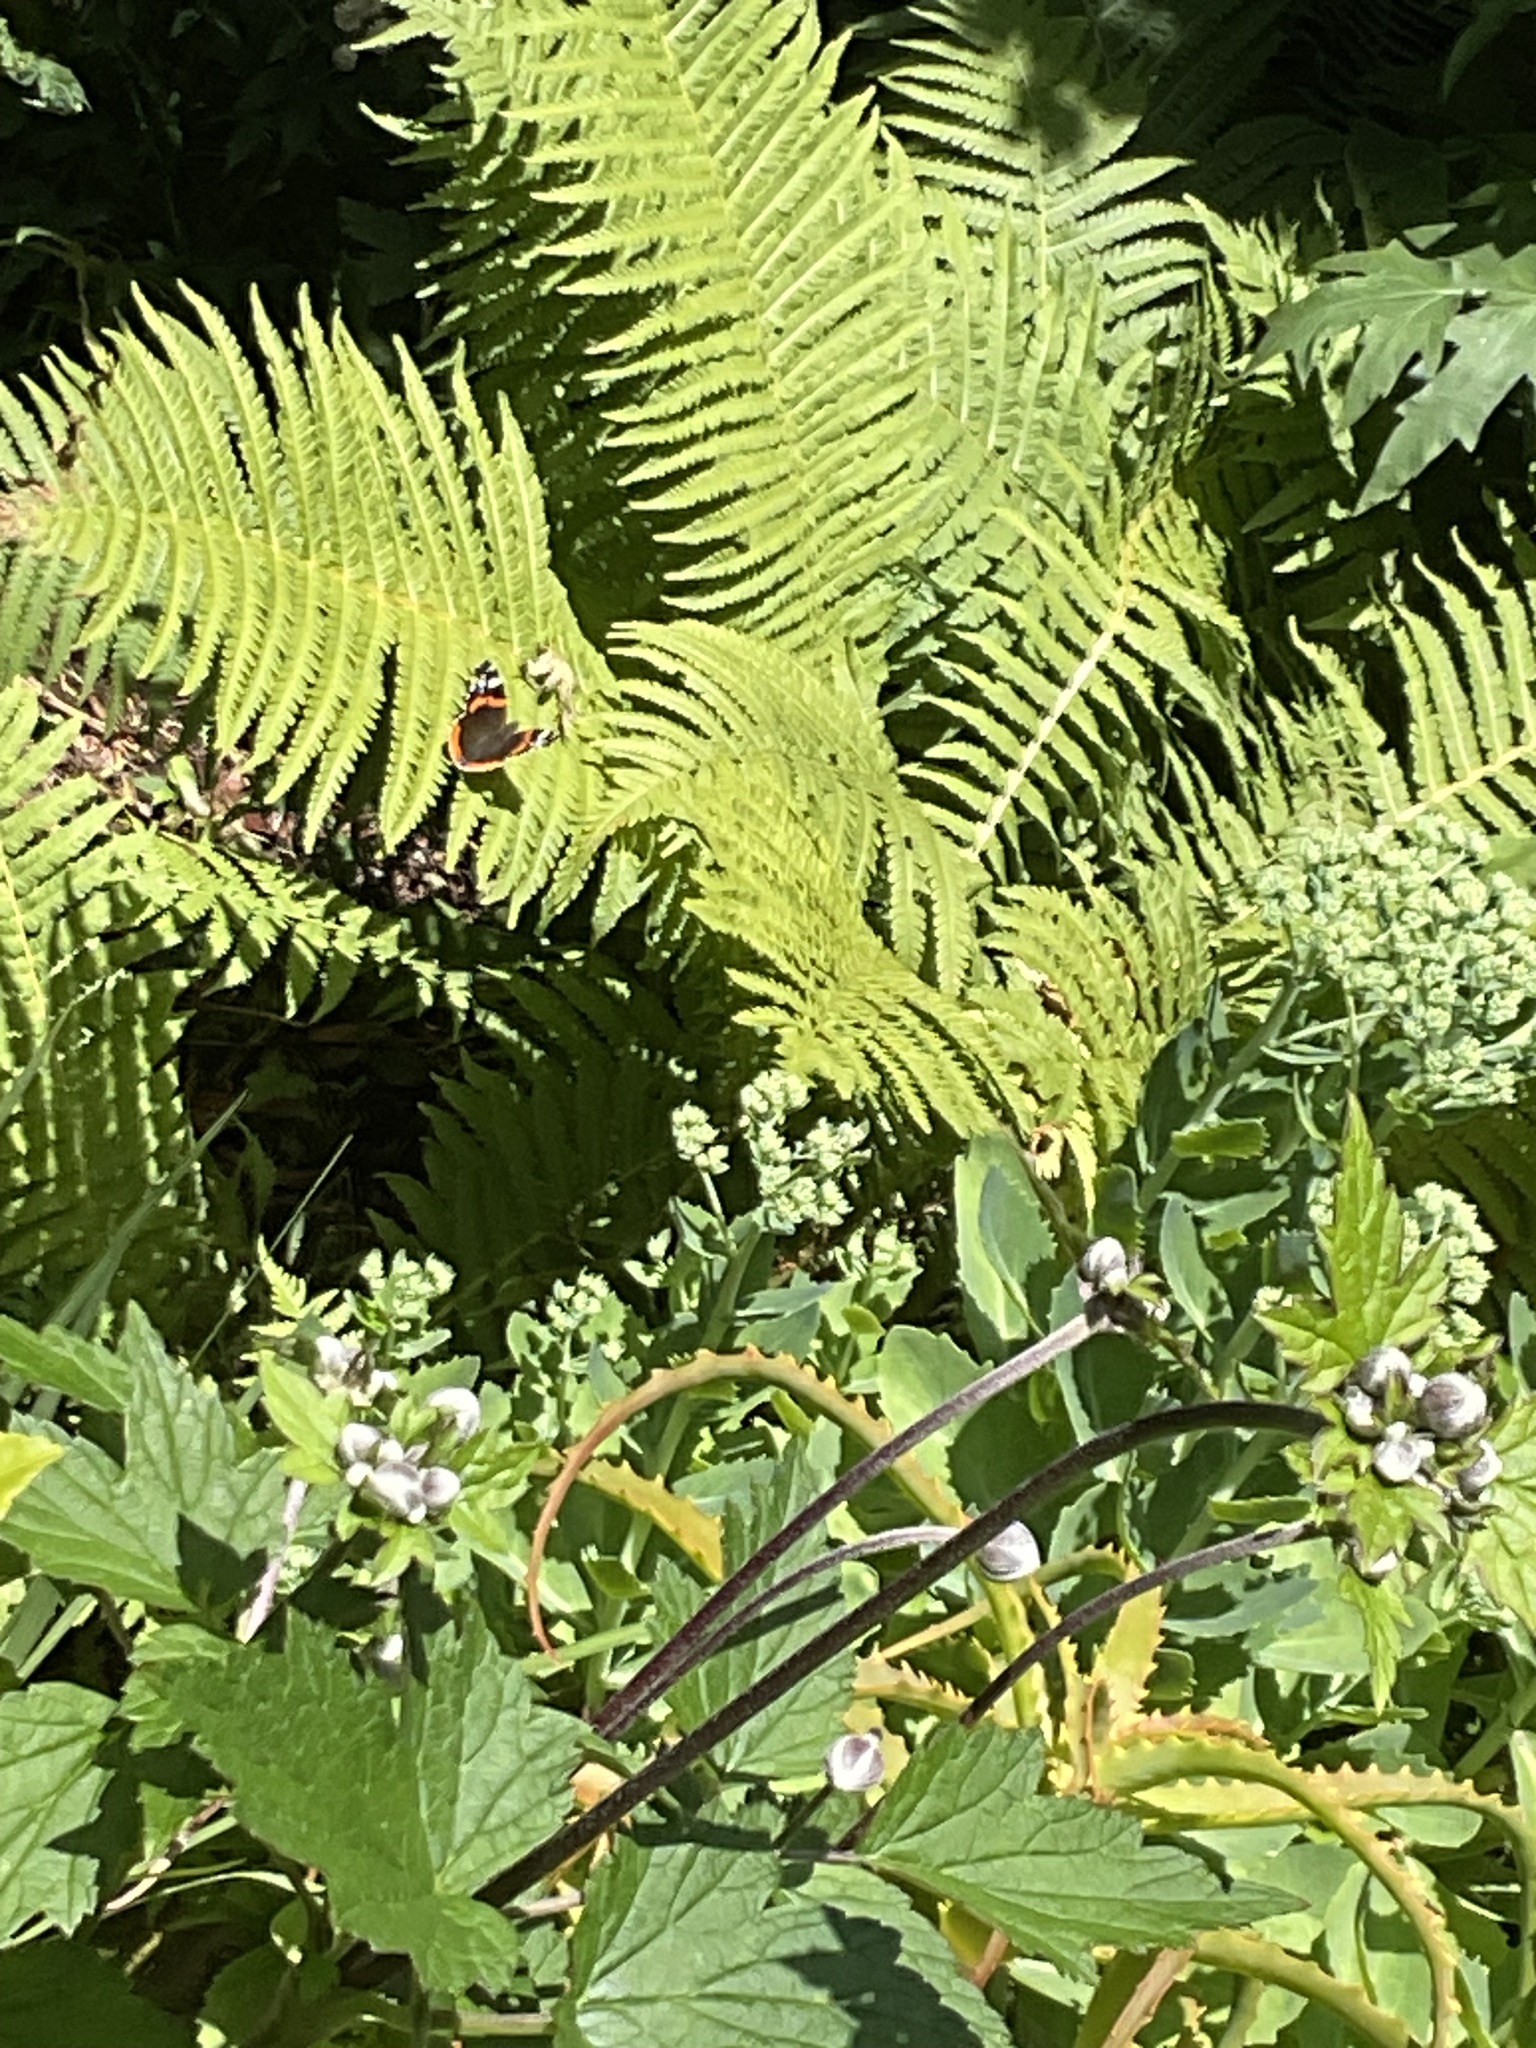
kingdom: Animalia
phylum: Arthropoda
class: Insecta
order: Lepidoptera
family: Nymphalidae
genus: Vanessa
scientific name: Vanessa atalanta
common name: Red admiral
